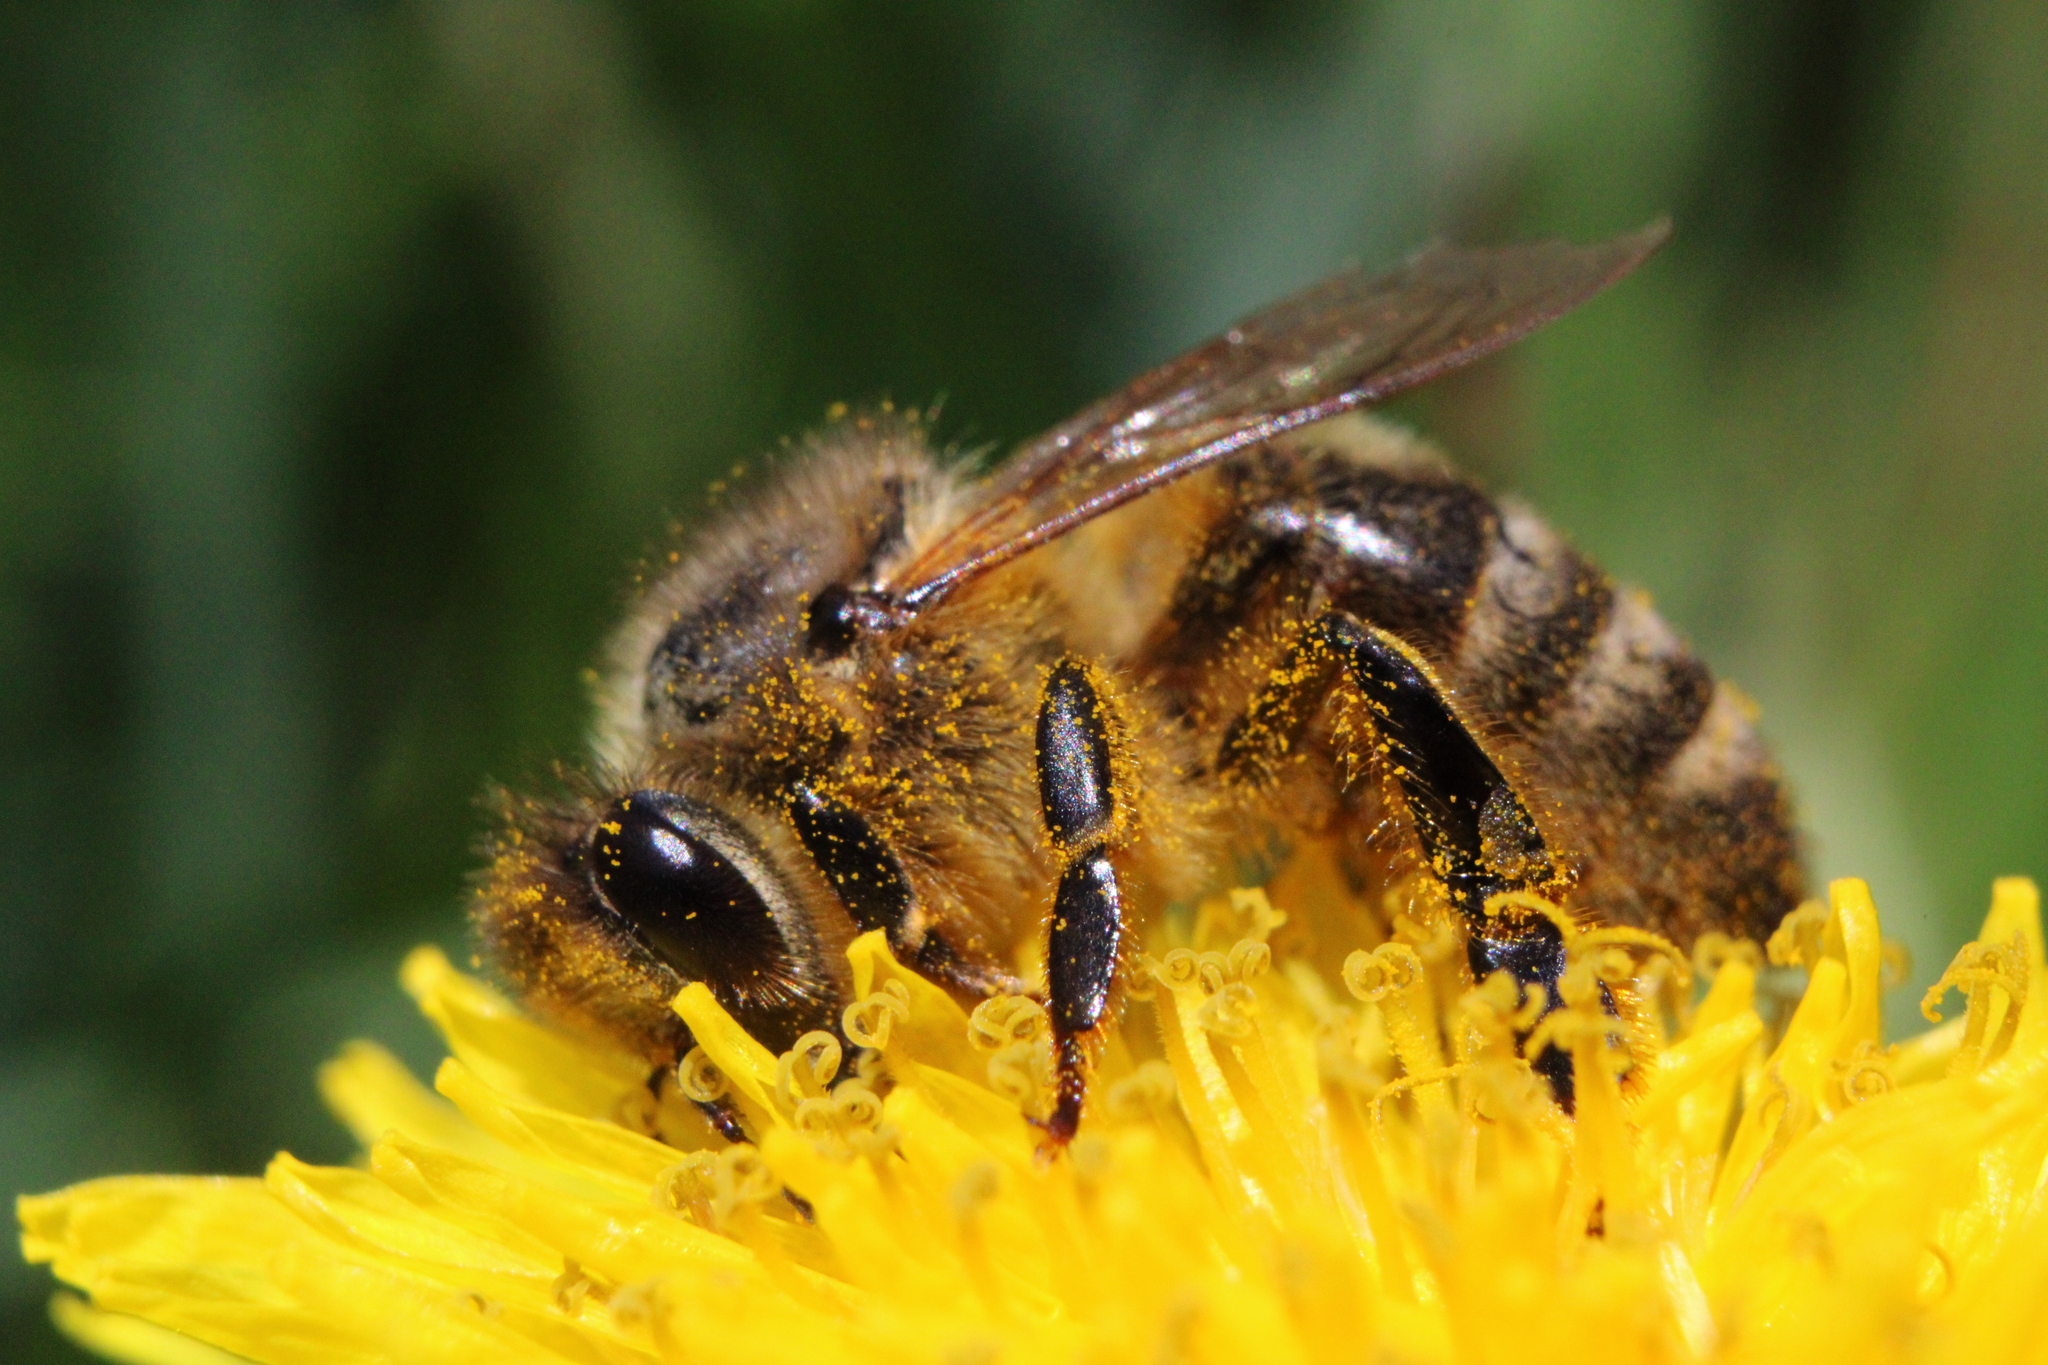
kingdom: Animalia
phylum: Arthropoda
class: Insecta
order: Hymenoptera
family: Apidae
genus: Apis
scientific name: Apis mellifera
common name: Honey bee
